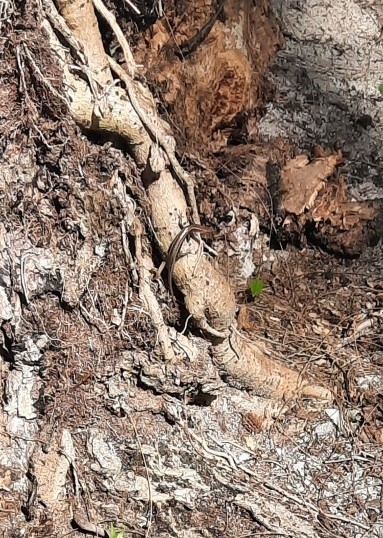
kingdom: Animalia
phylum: Chordata
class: Squamata
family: Scincidae
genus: Cryptoblepharus
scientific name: Cryptoblepharus poecilopleurus
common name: Mottled snake-eyed skink
